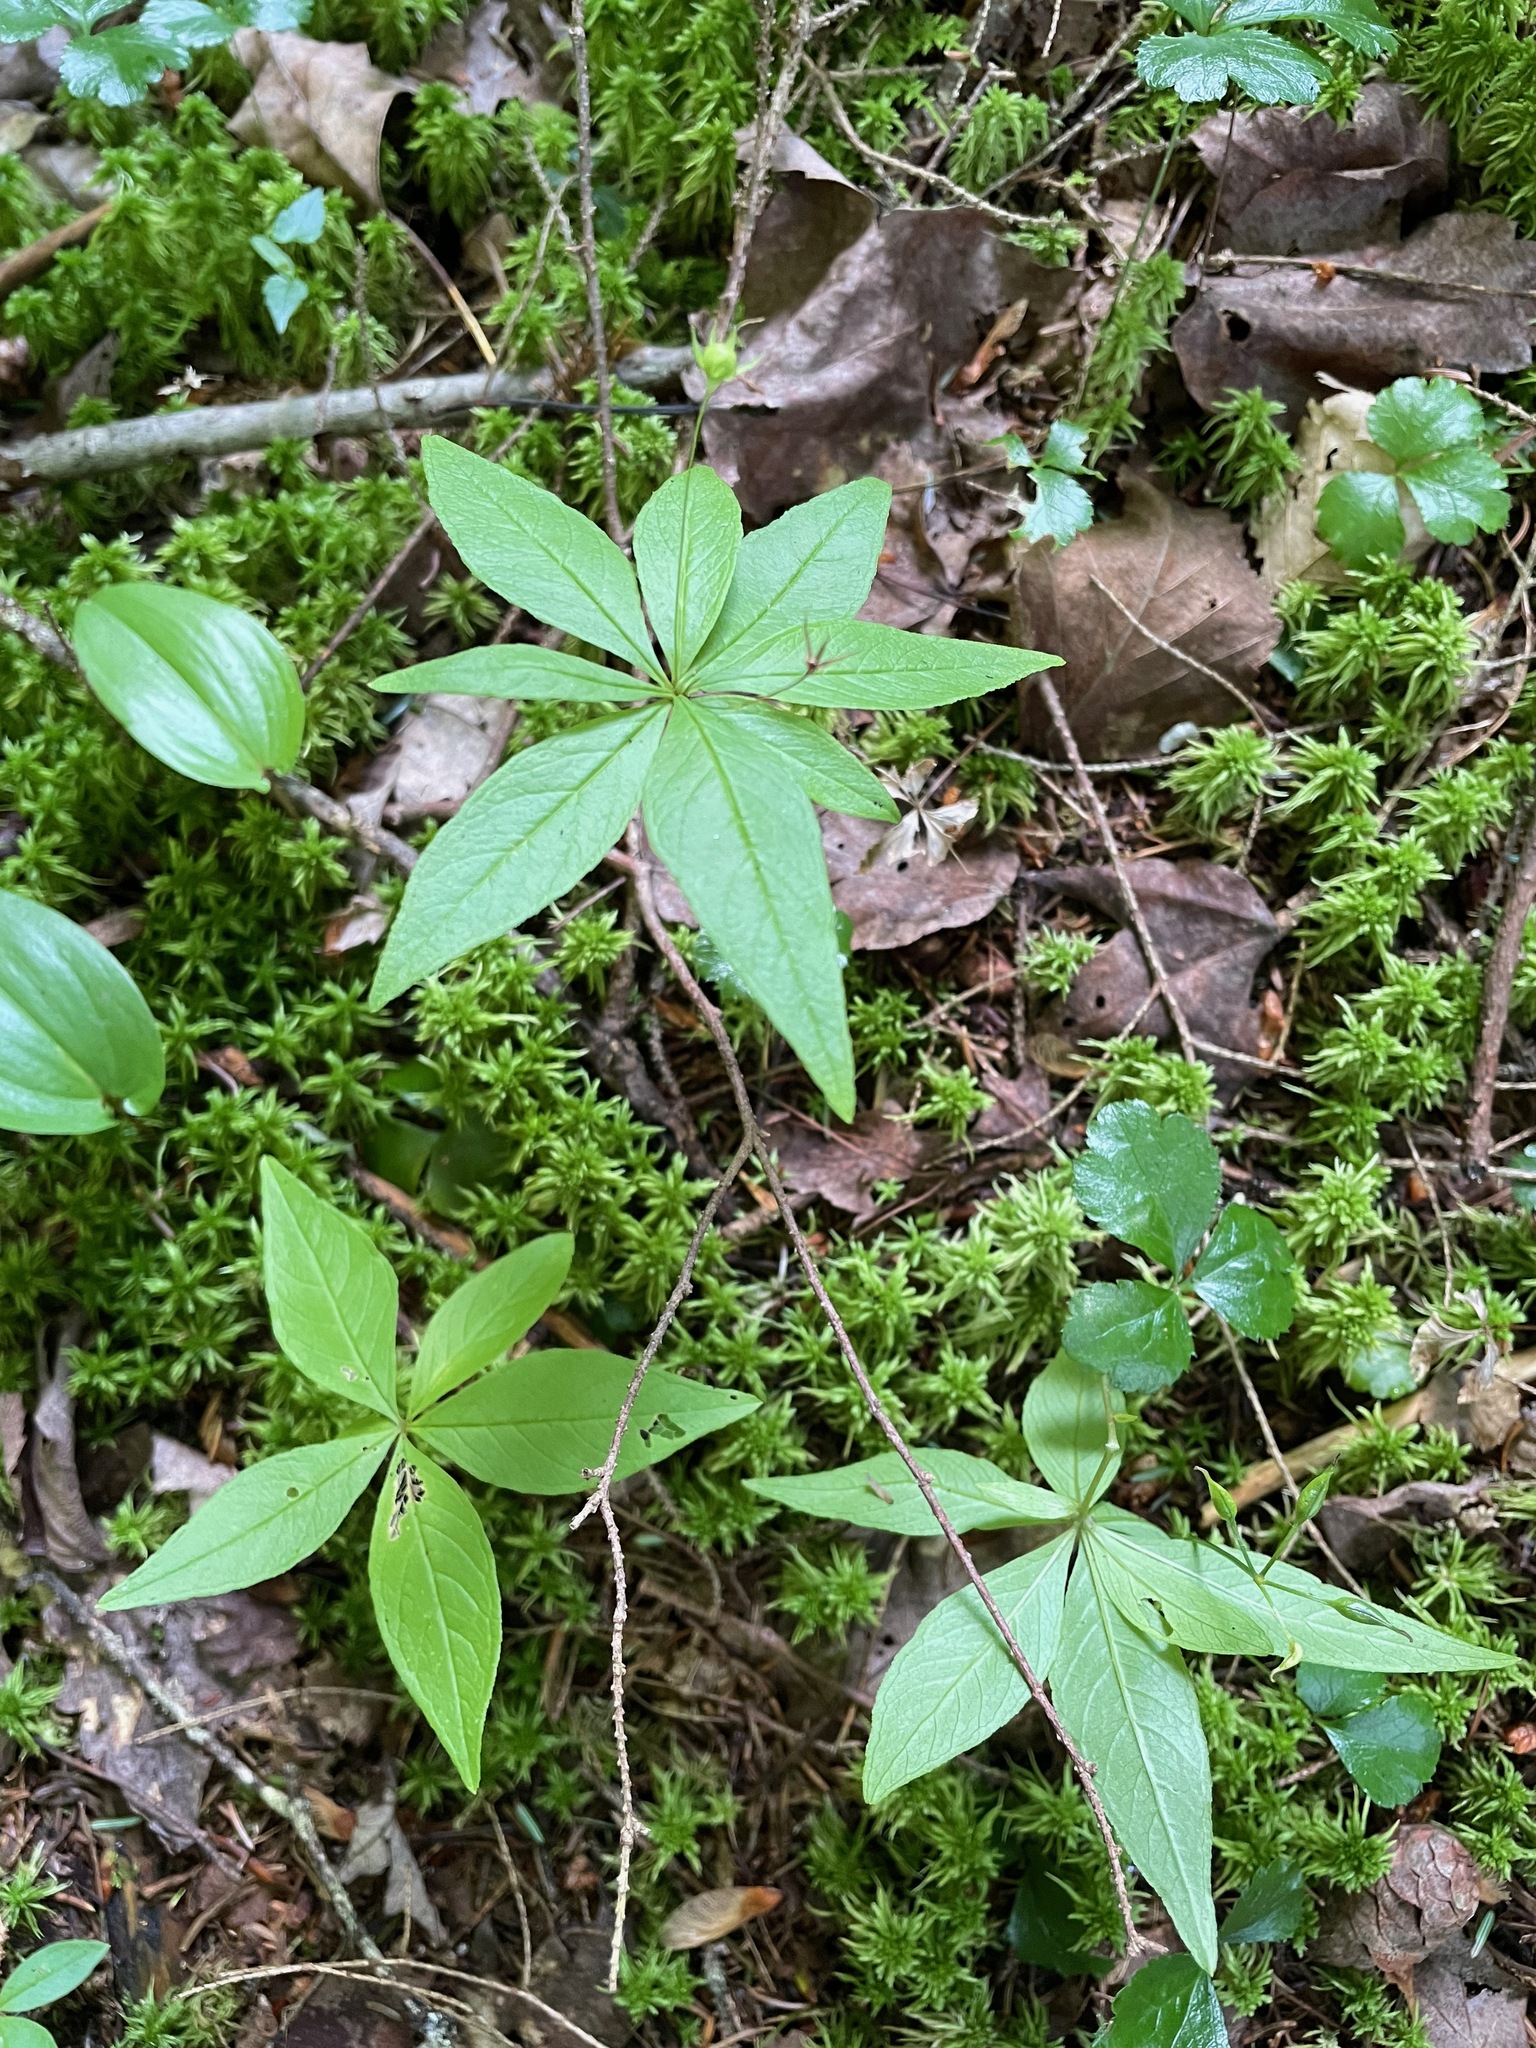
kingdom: Plantae
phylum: Tracheophyta
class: Magnoliopsida
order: Ericales
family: Primulaceae
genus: Lysimachia
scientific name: Lysimachia borealis
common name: American starflower
